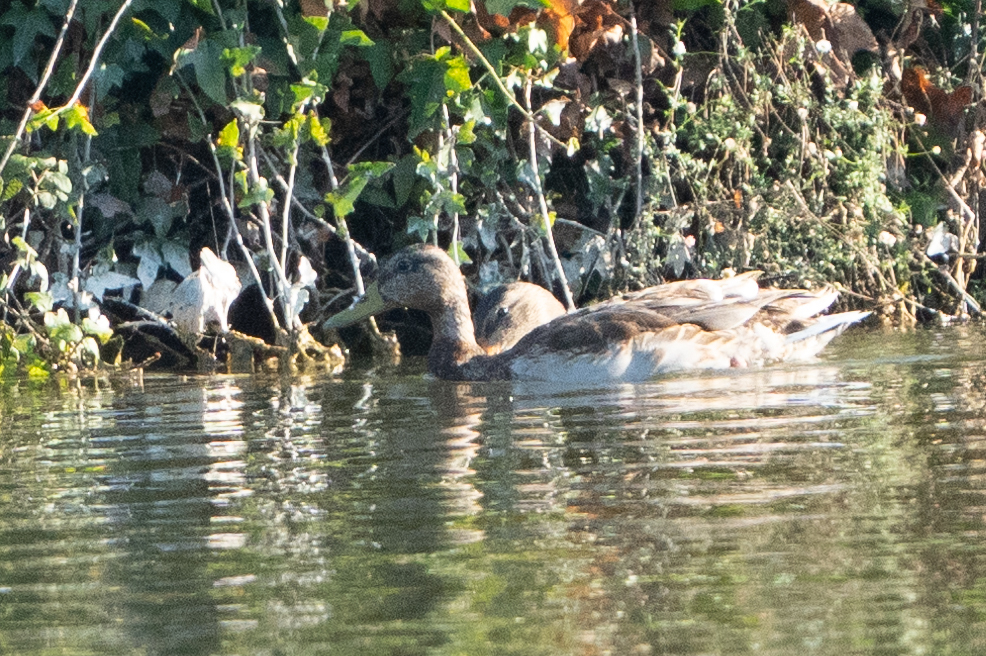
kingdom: Animalia
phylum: Chordata
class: Aves
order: Anseriformes
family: Anatidae
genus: Anas
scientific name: Anas platyrhynchos
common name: Mallard
